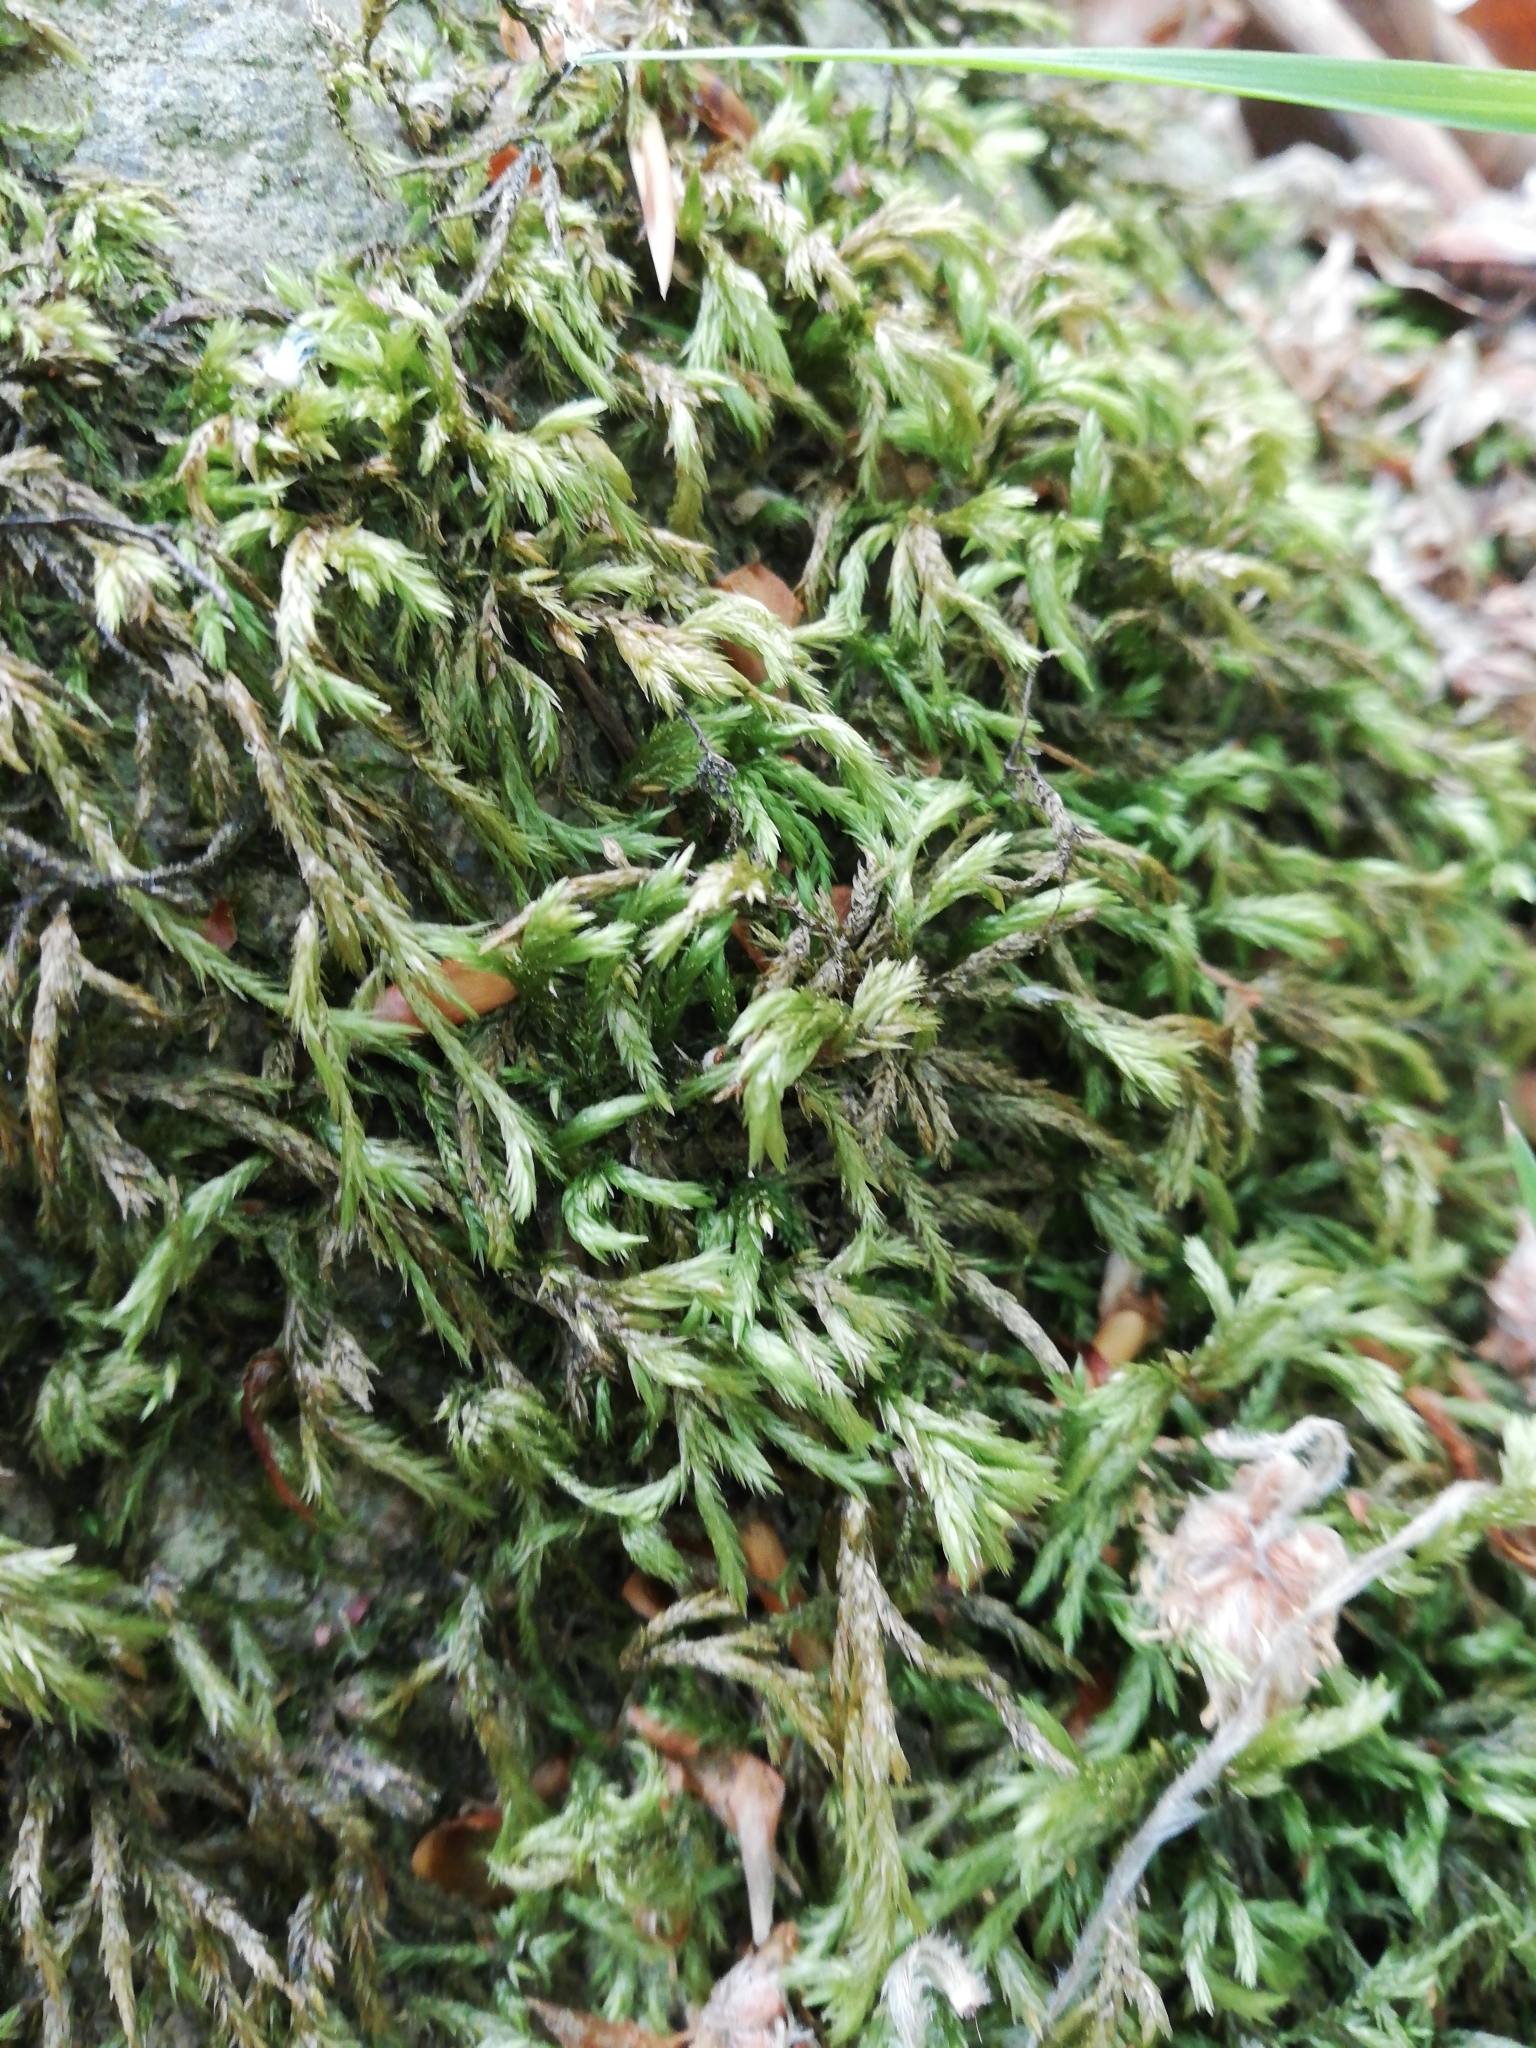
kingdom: Plantae
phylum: Bryophyta
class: Bryopsida
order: Hypnales
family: Lembophyllaceae
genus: Isothecium
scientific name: Isothecium alopecuroides
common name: Larger mouse-tail moss
